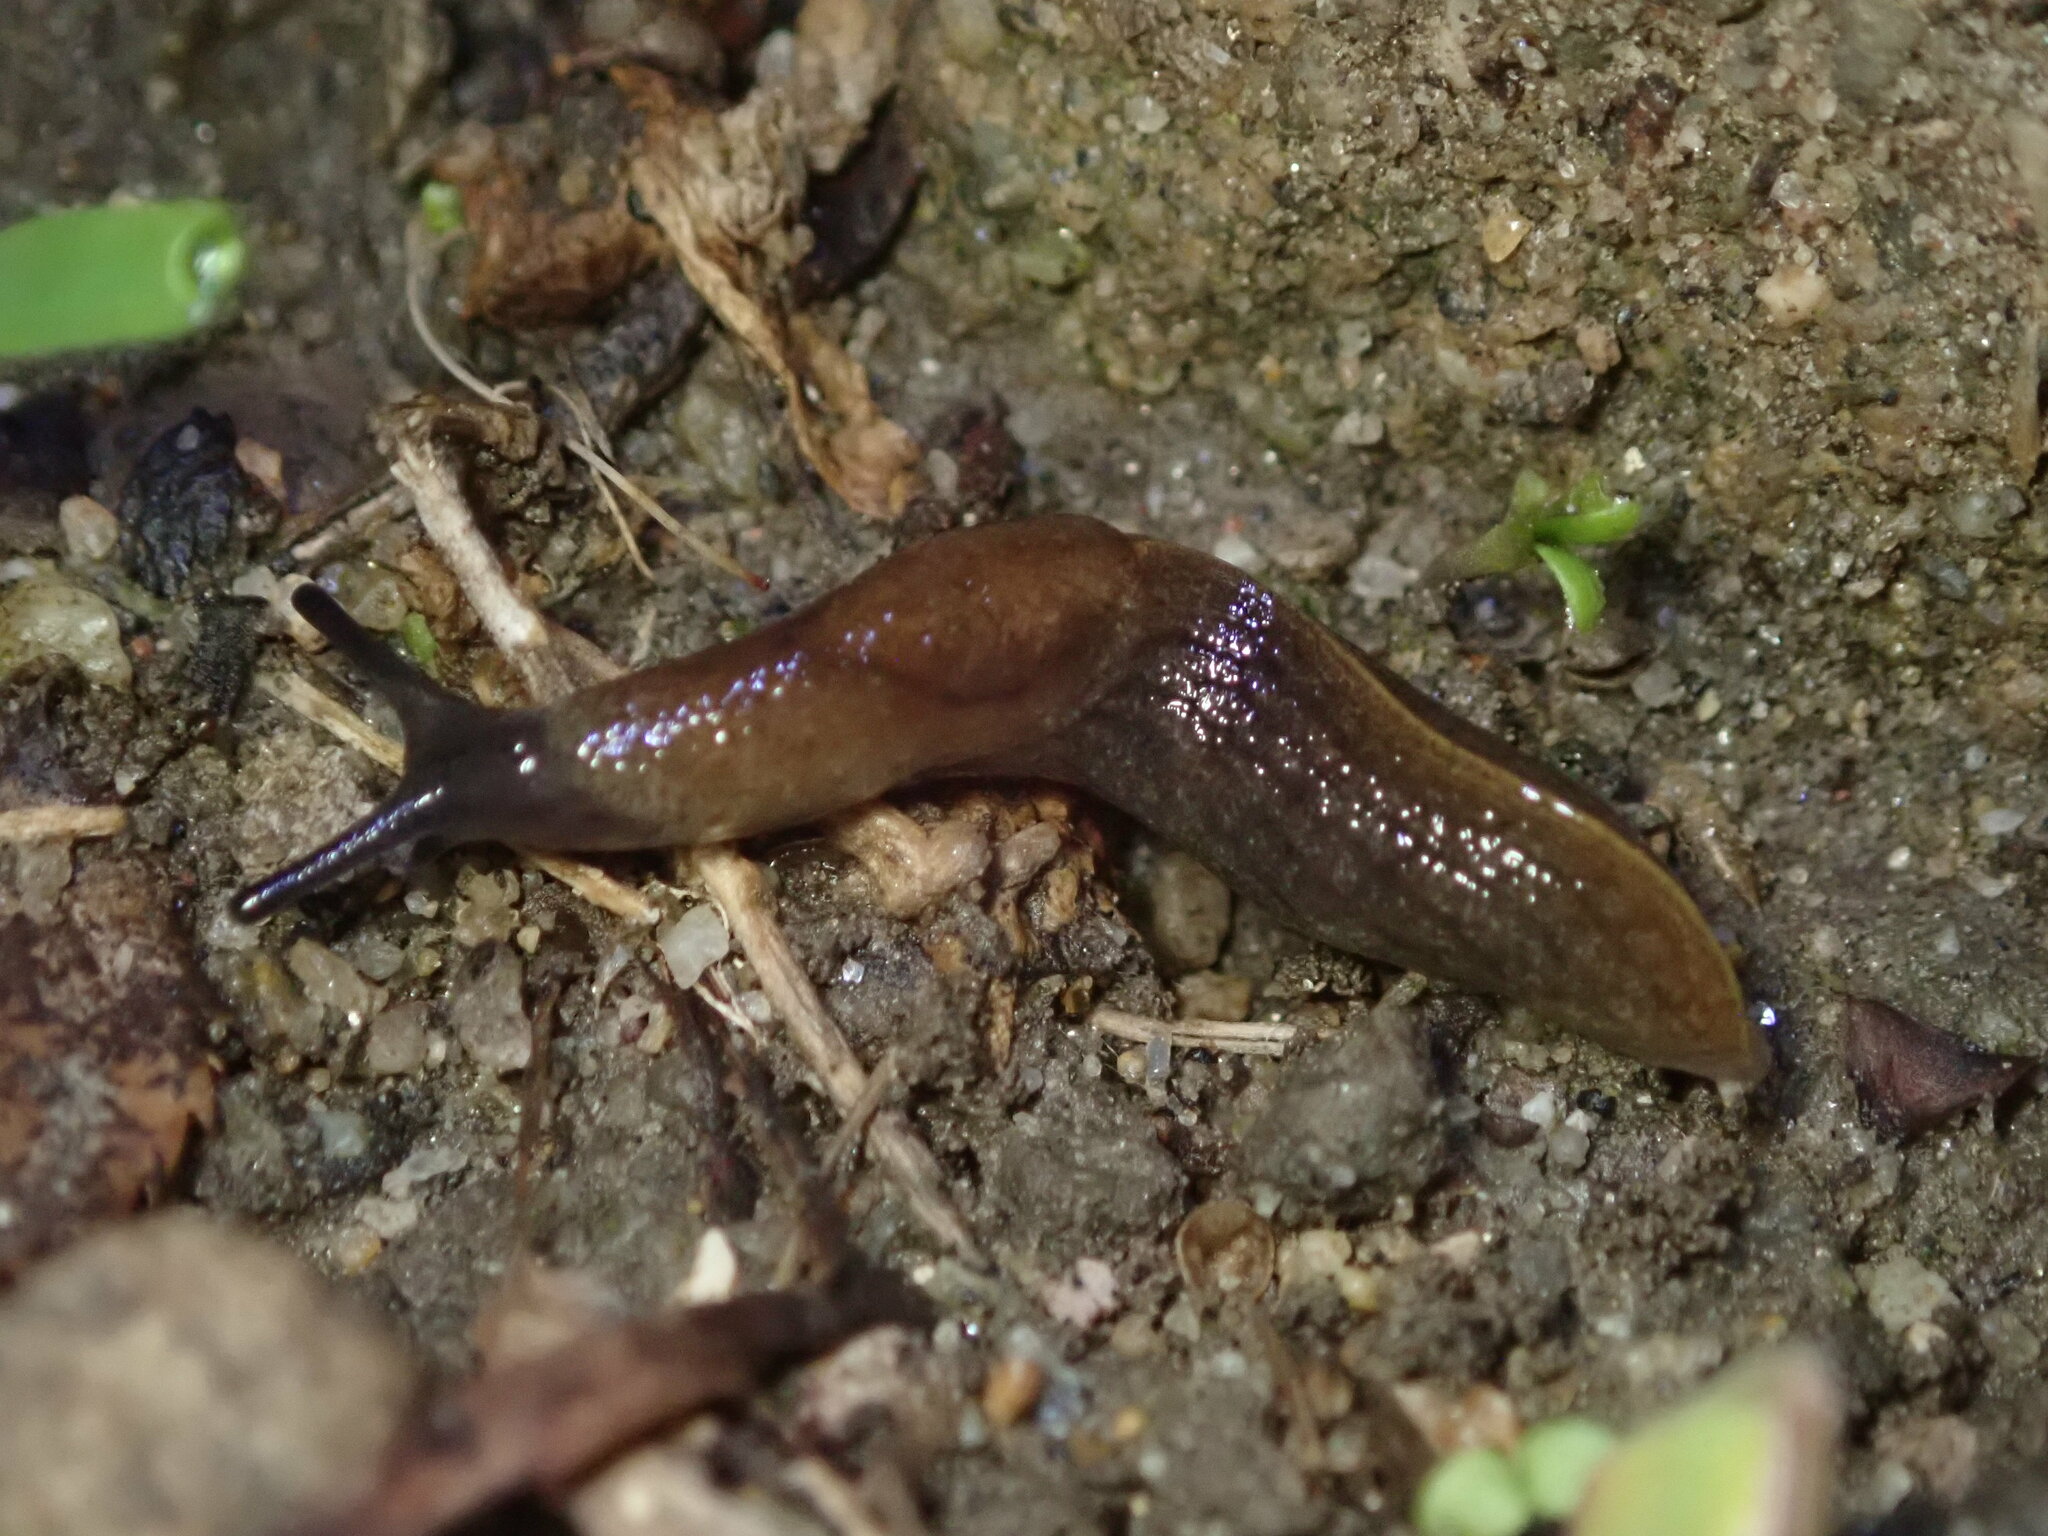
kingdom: Animalia
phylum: Mollusca
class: Gastropoda
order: Stylommatophora
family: Milacidae
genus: Milax
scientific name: Milax gagates
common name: Greenhouse slug
